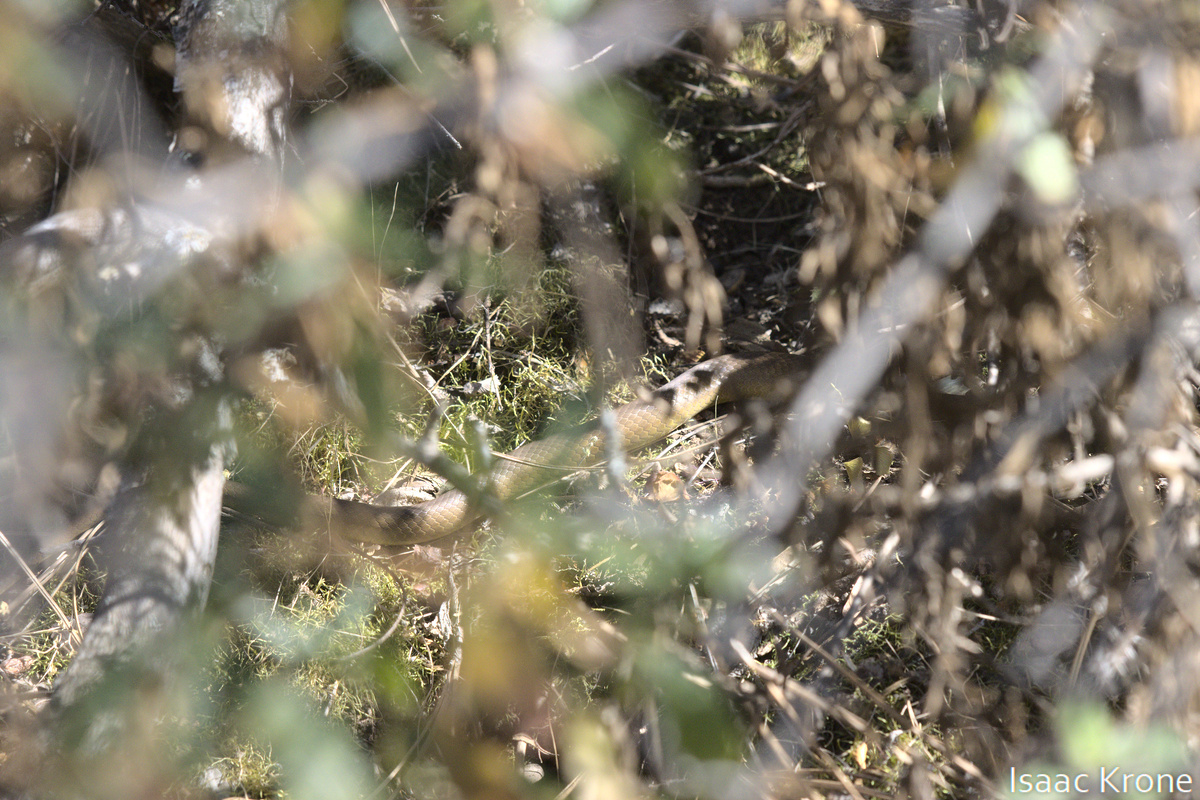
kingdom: Animalia
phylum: Chordata
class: Squamata
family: Colubridae
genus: Coluber
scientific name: Coluber constrictor
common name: Eastern racer
